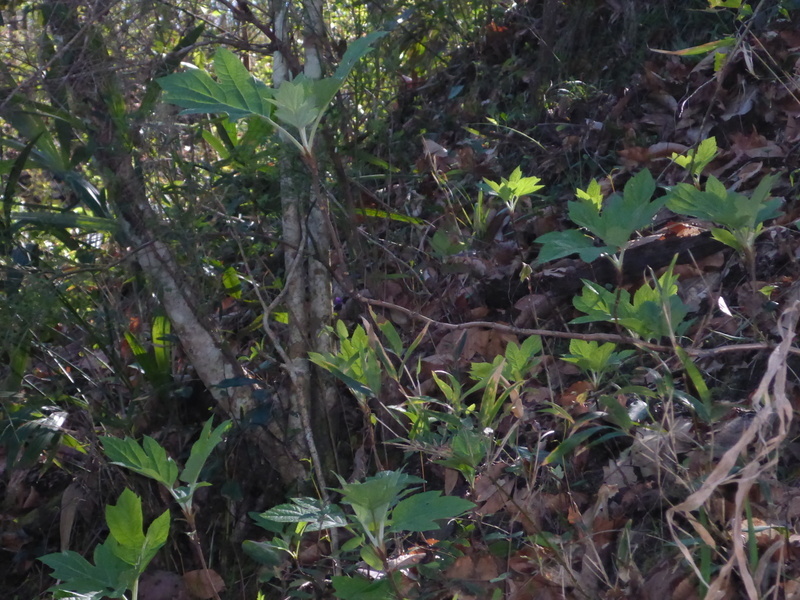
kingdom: Plantae
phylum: Tracheophyta
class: Magnoliopsida
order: Cornales
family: Hydrangeaceae
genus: Hydrangea
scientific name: Hydrangea quercifolia
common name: Oak-leaf hydrangea
